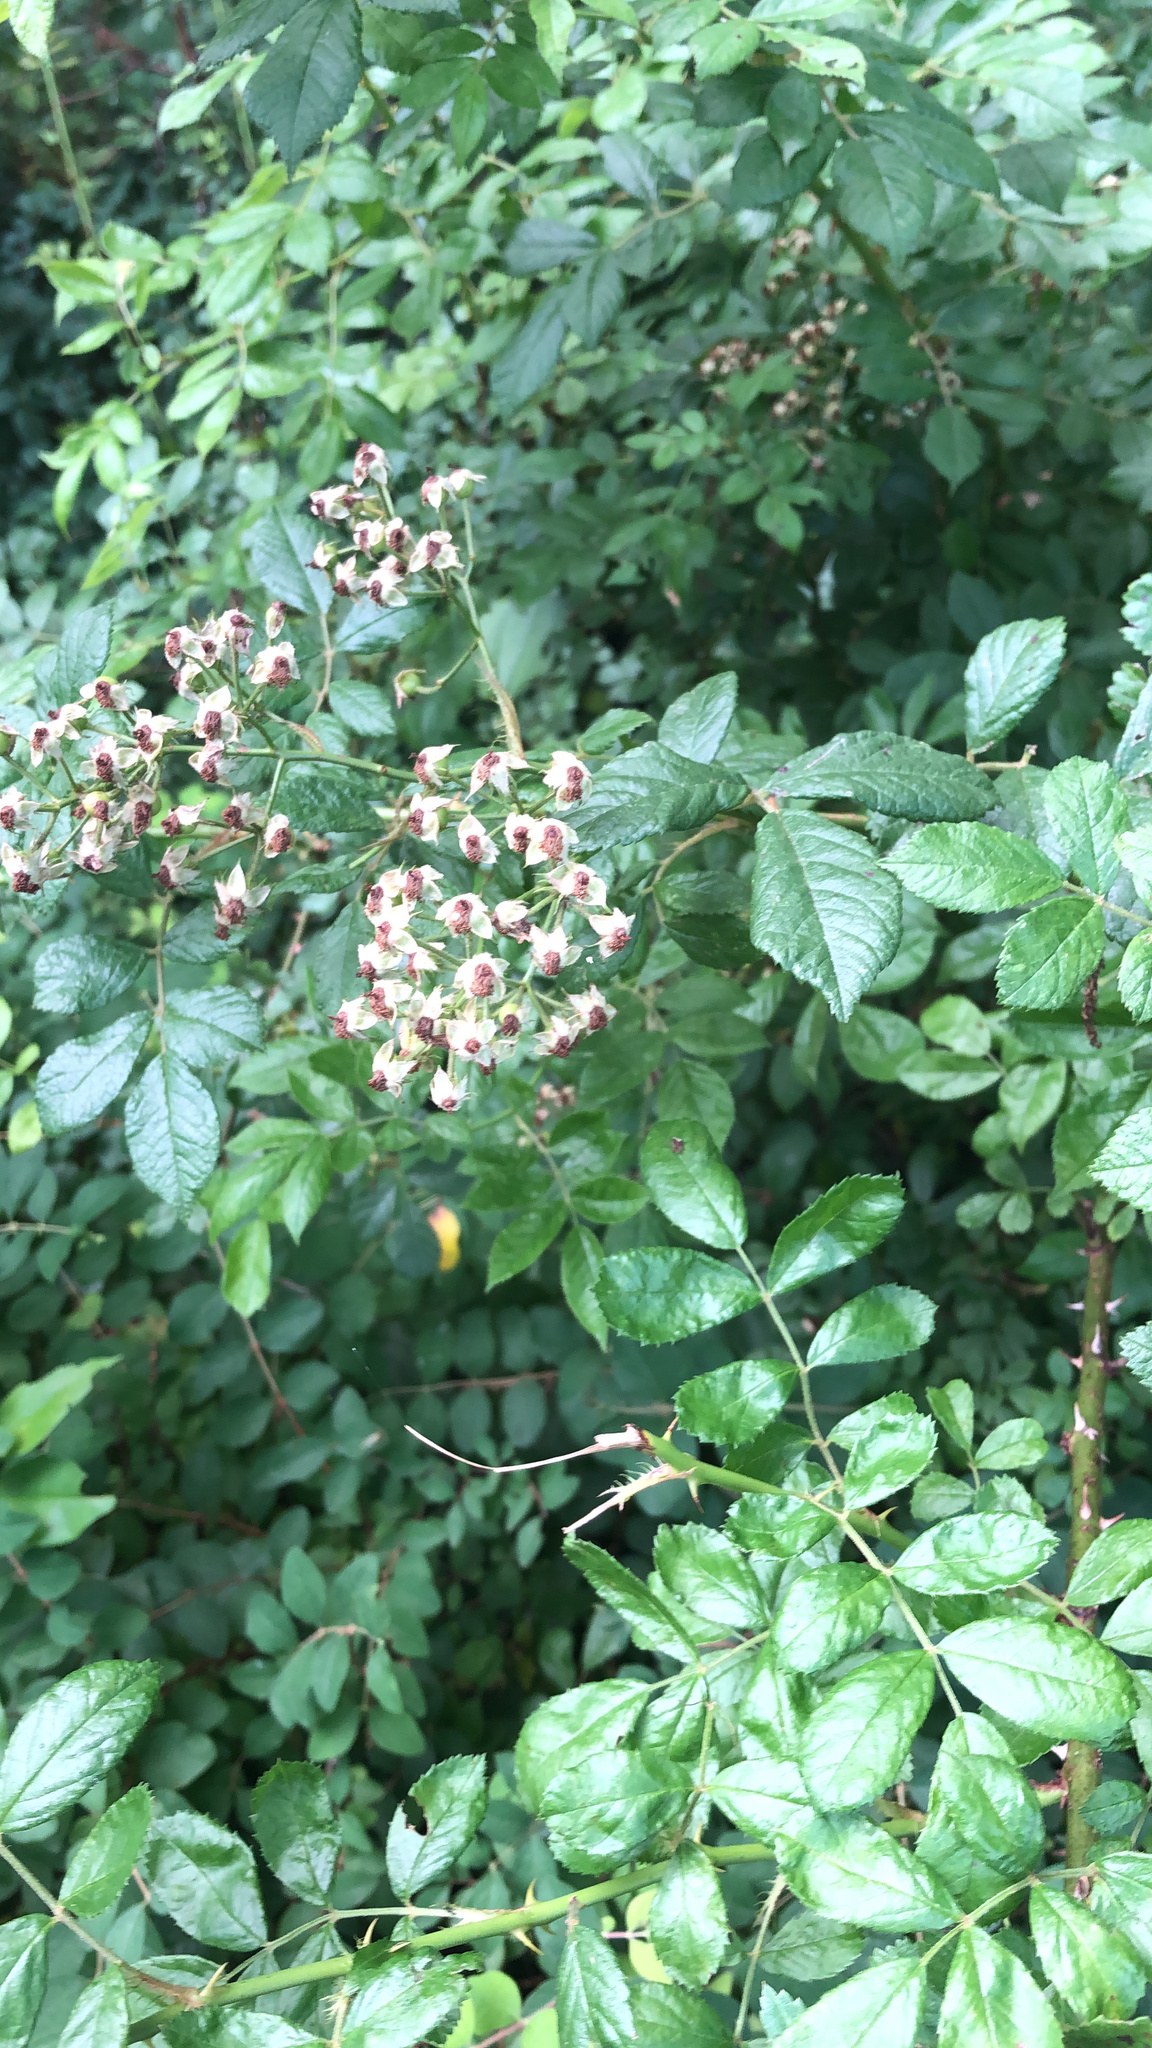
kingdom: Plantae
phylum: Tracheophyta
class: Magnoliopsida
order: Rosales
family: Rosaceae
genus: Rosa
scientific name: Rosa multiflora
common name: Multiflora rose
